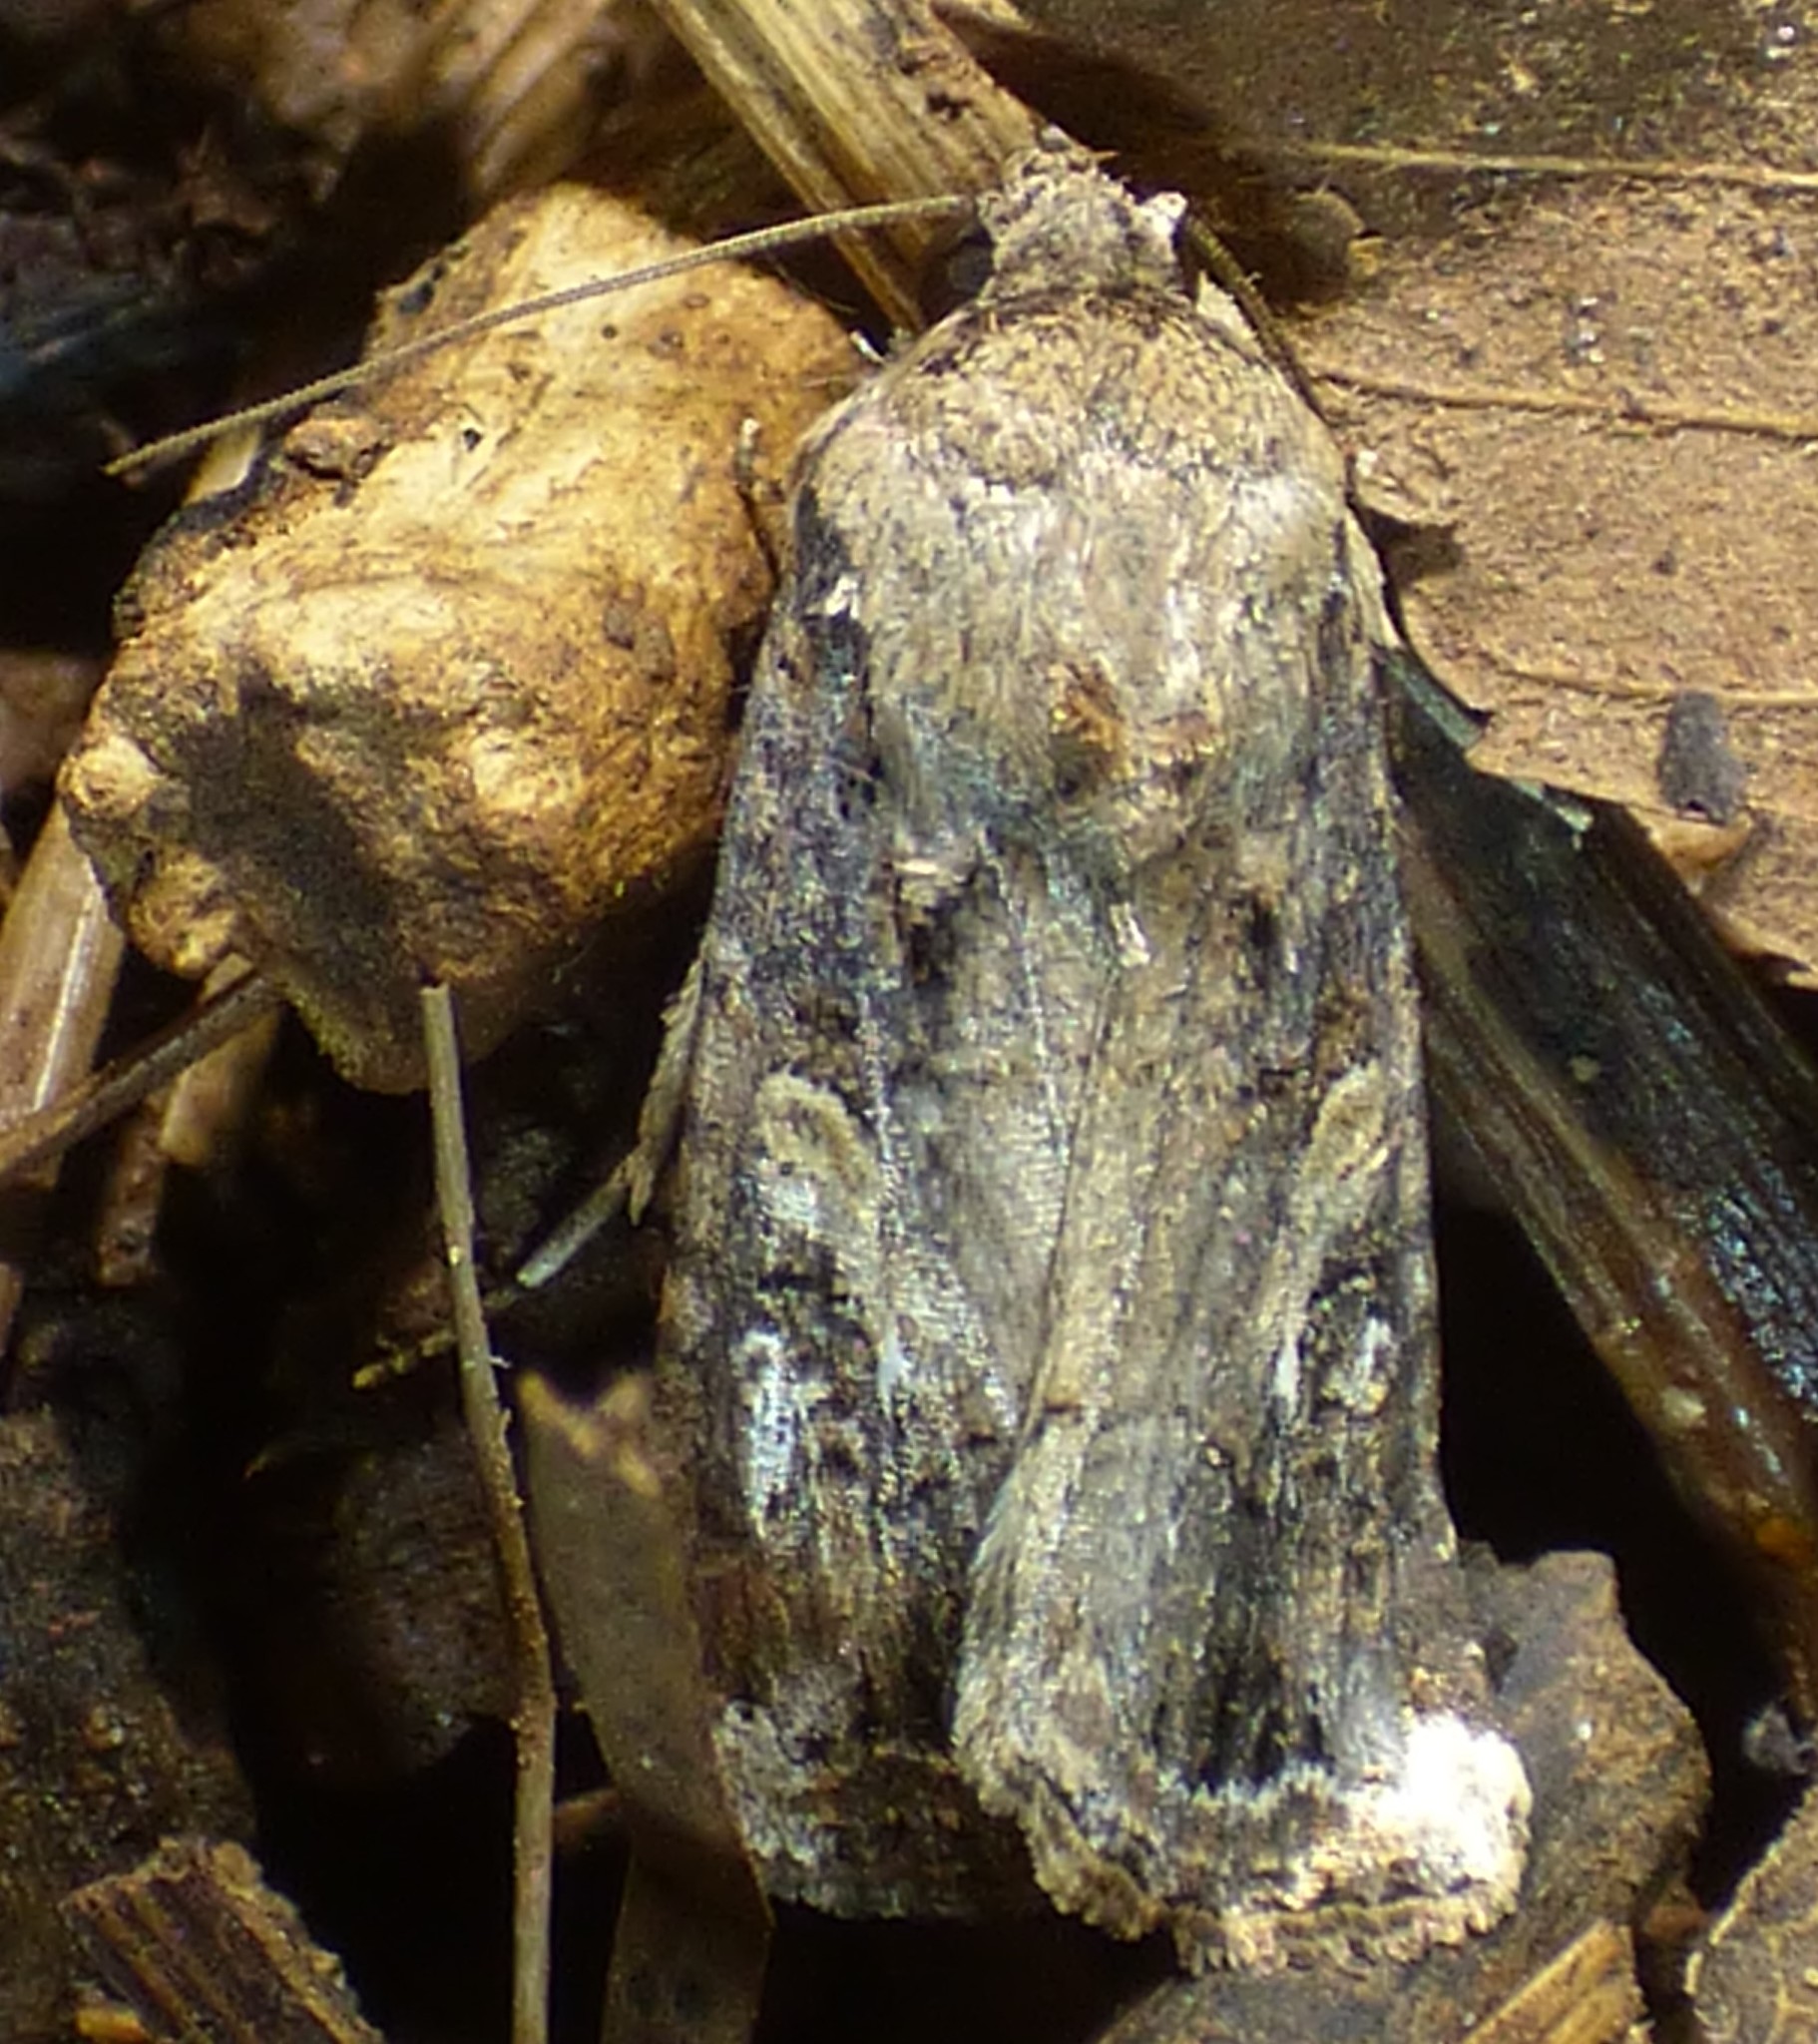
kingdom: Animalia
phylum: Arthropoda
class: Insecta
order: Lepidoptera
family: Noctuidae
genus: Spodoptera
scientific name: Spodoptera frugiperda
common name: Fall armyworm
